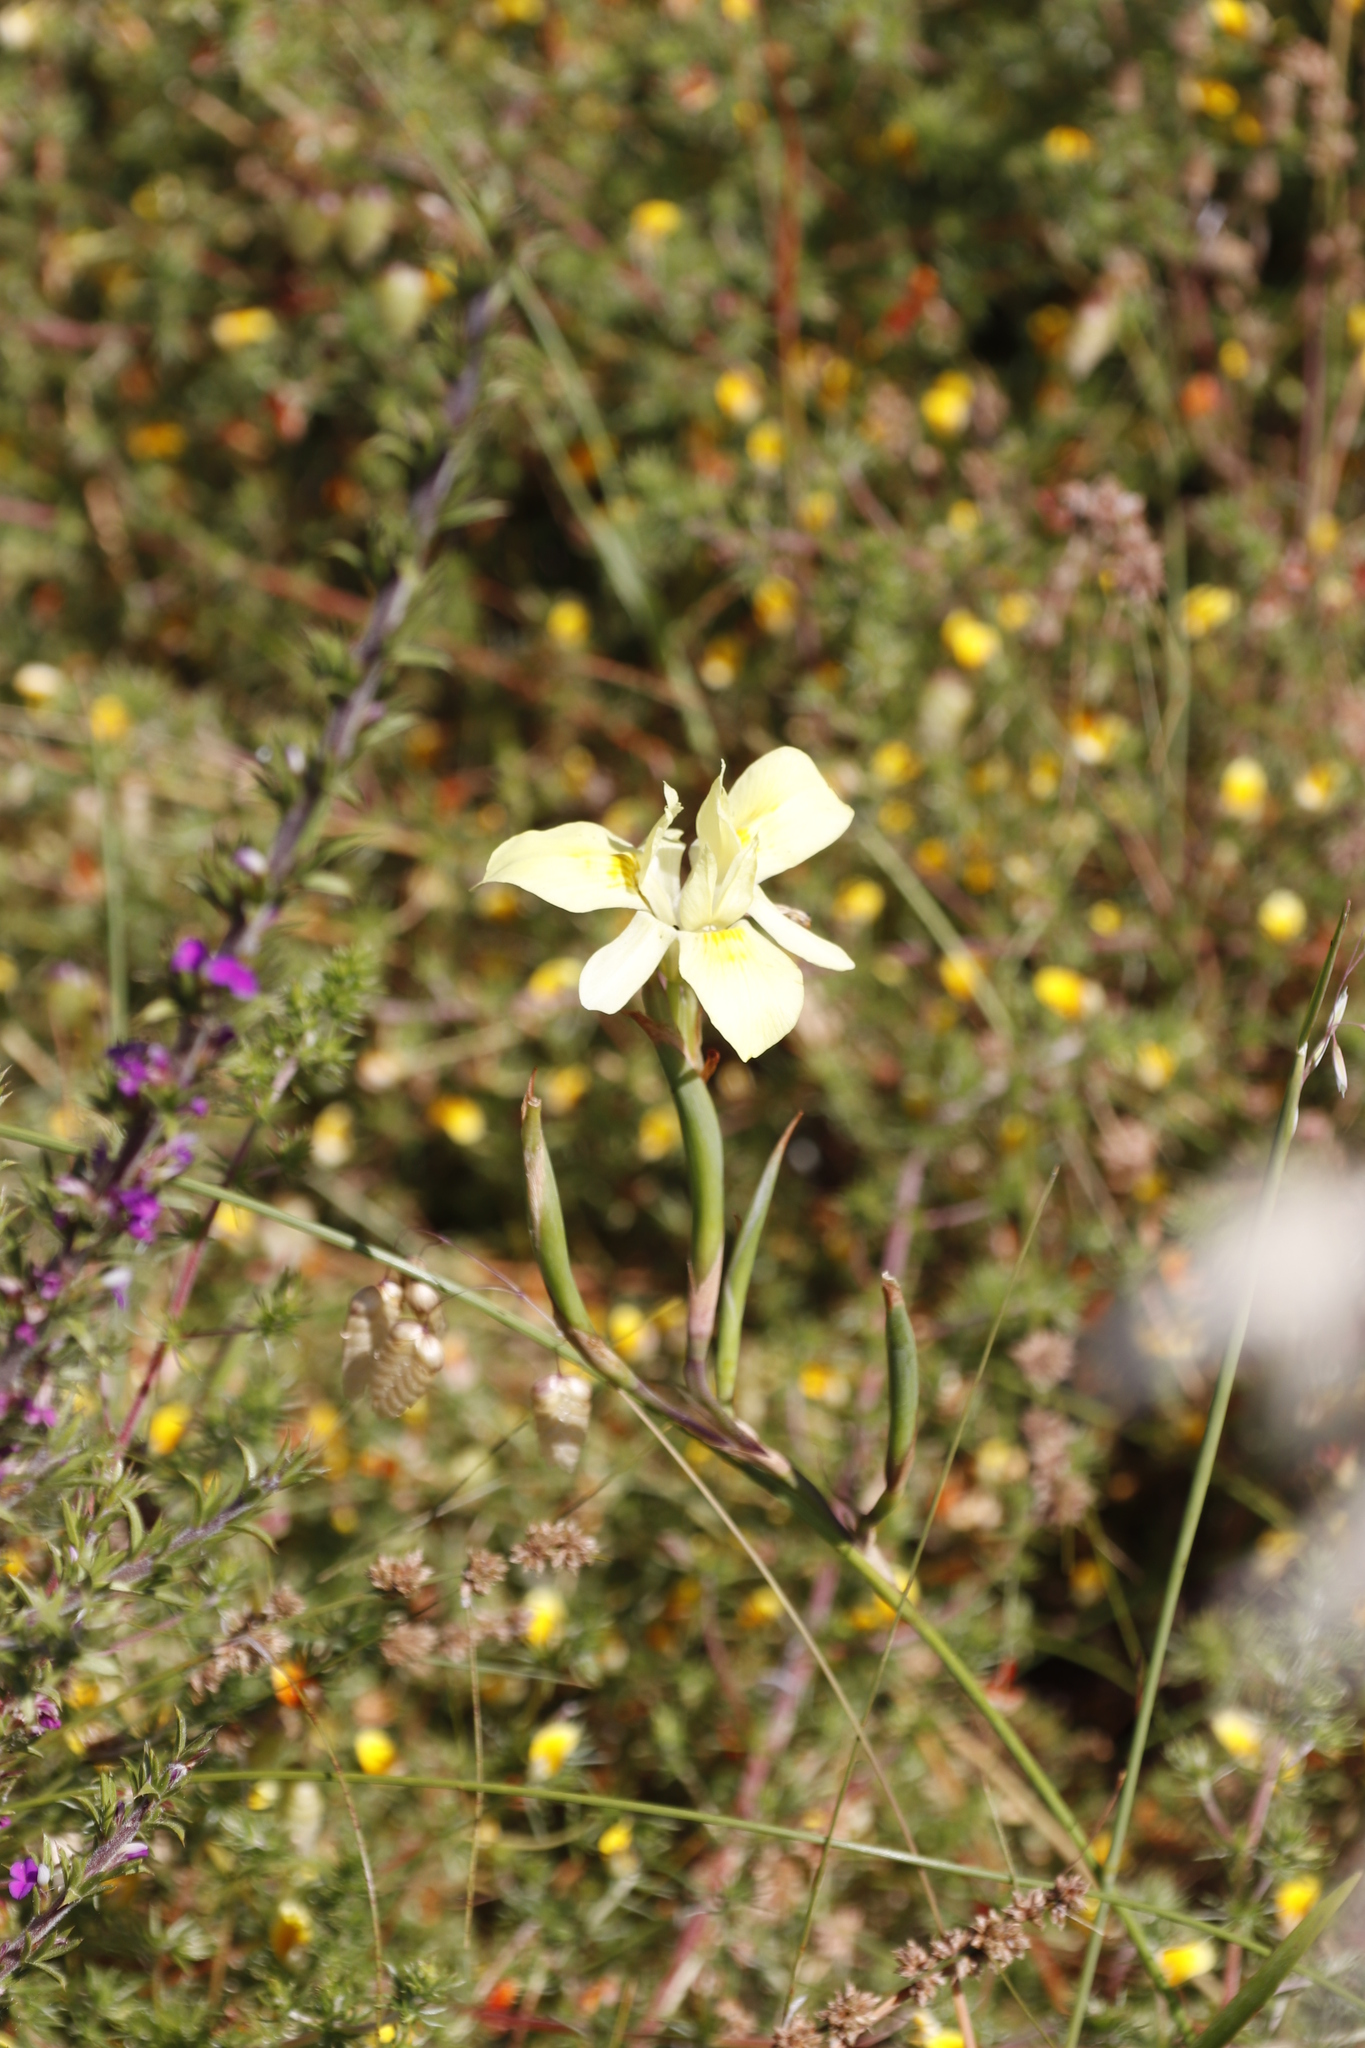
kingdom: Plantae
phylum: Tracheophyta
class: Liliopsida
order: Asparagales
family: Iridaceae
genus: Moraea
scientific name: Moraea fugax
